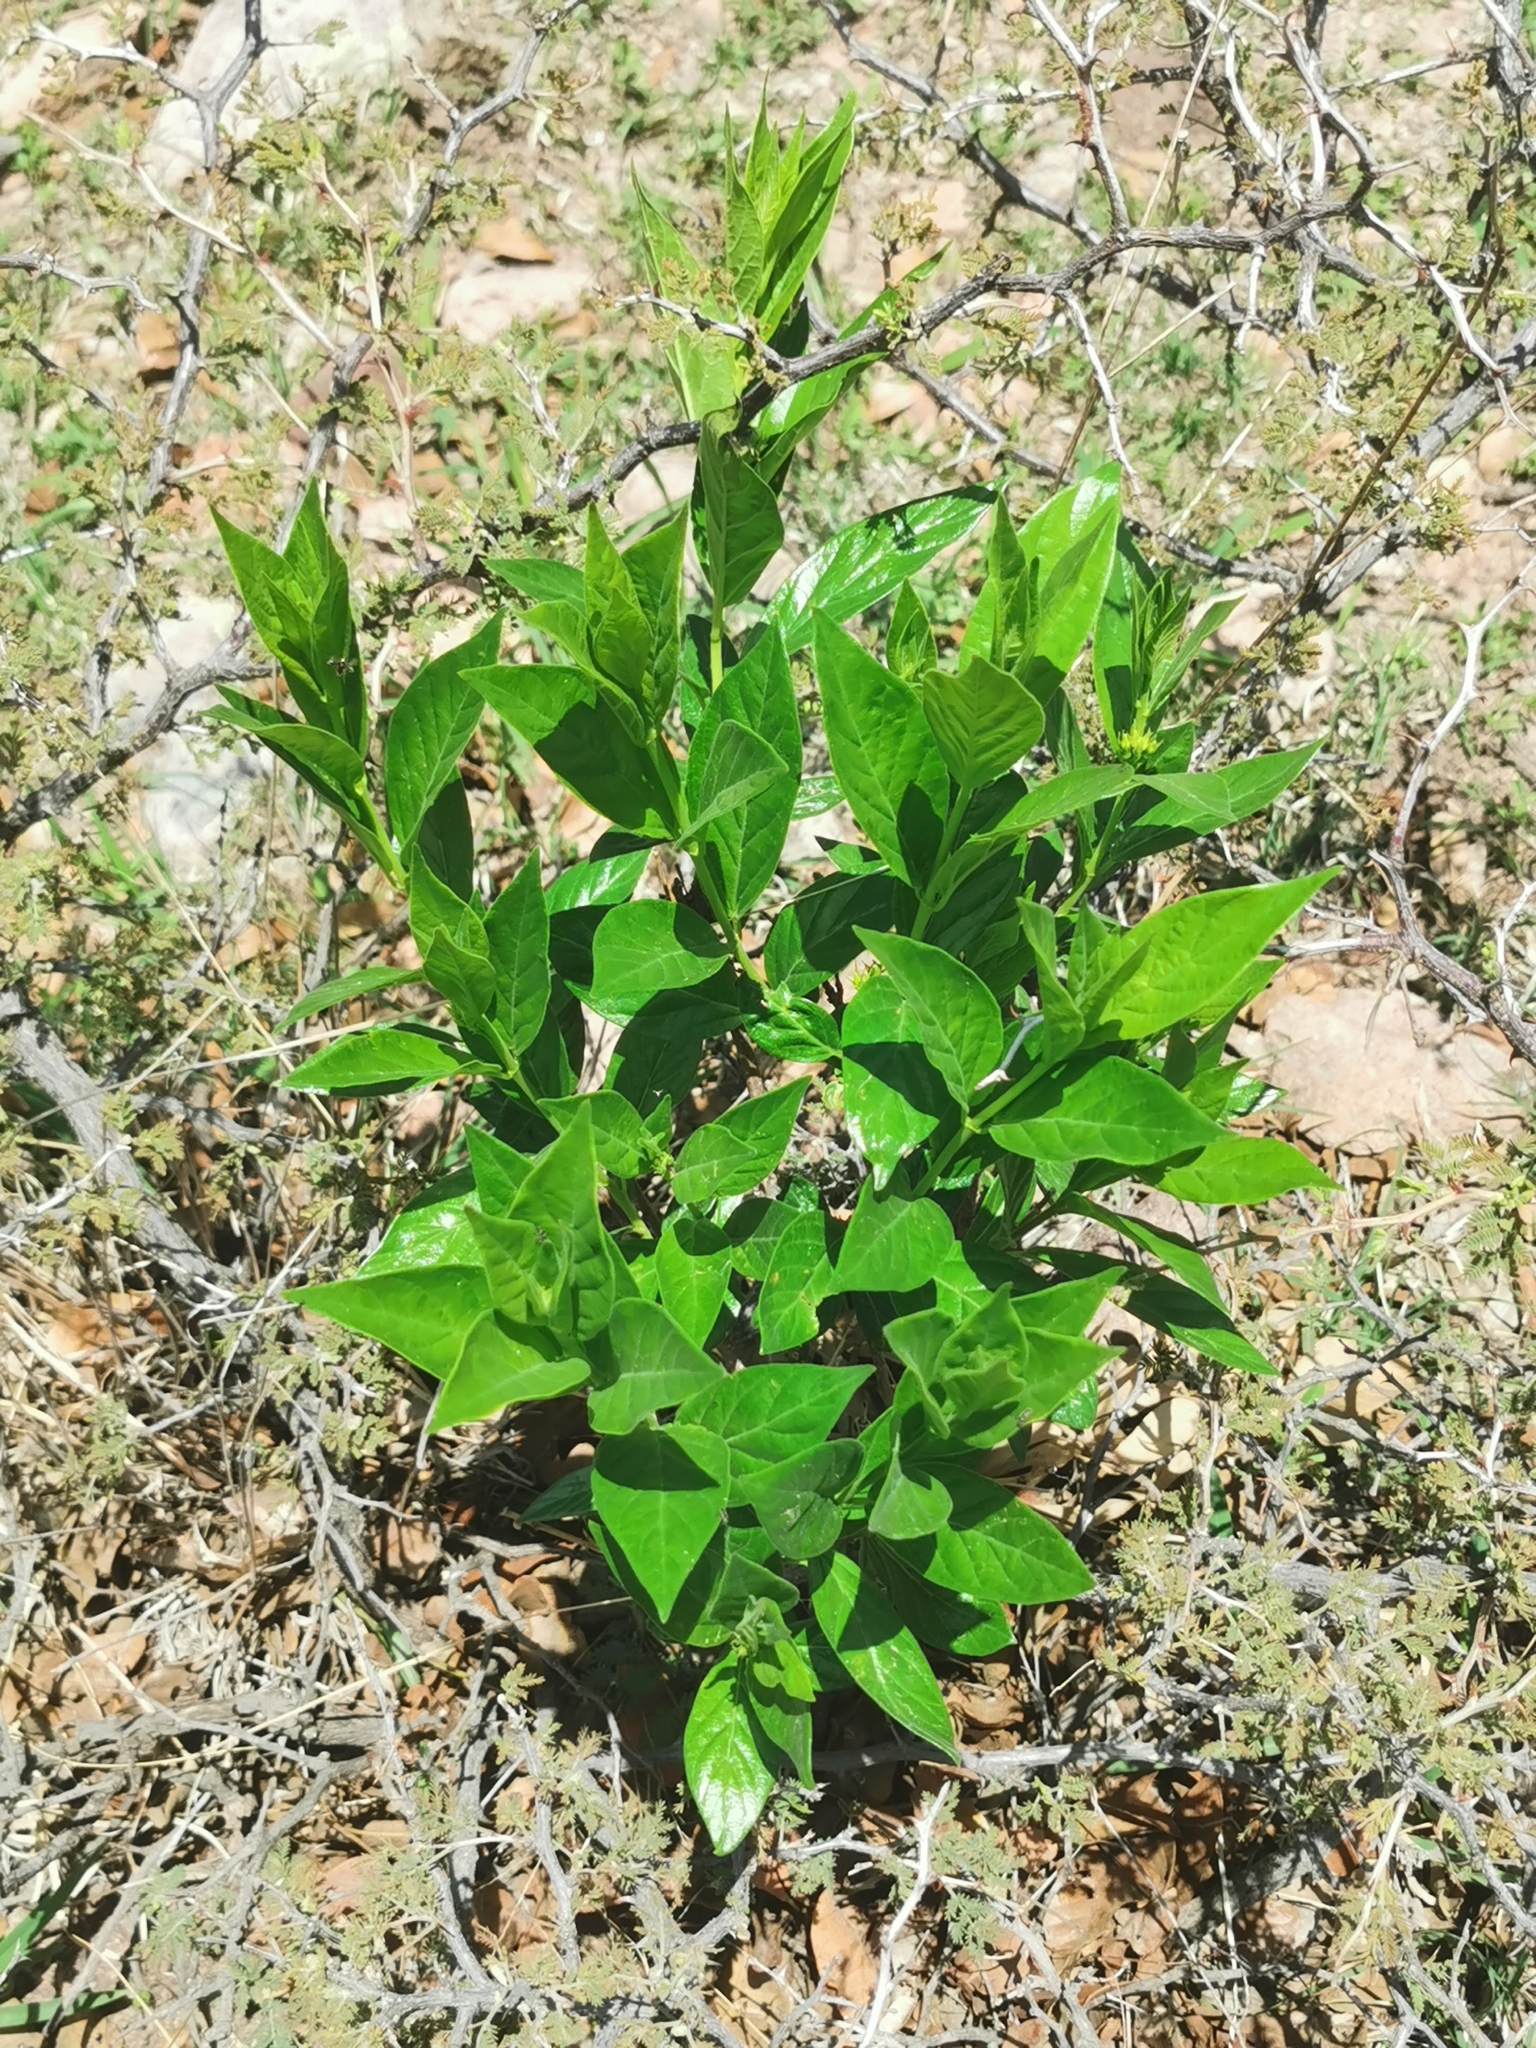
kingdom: Plantae
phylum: Tracheophyta
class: Magnoliopsida
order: Gentianales
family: Apocynaceae
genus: Mandevilla
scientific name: Mandevilla foliosa
